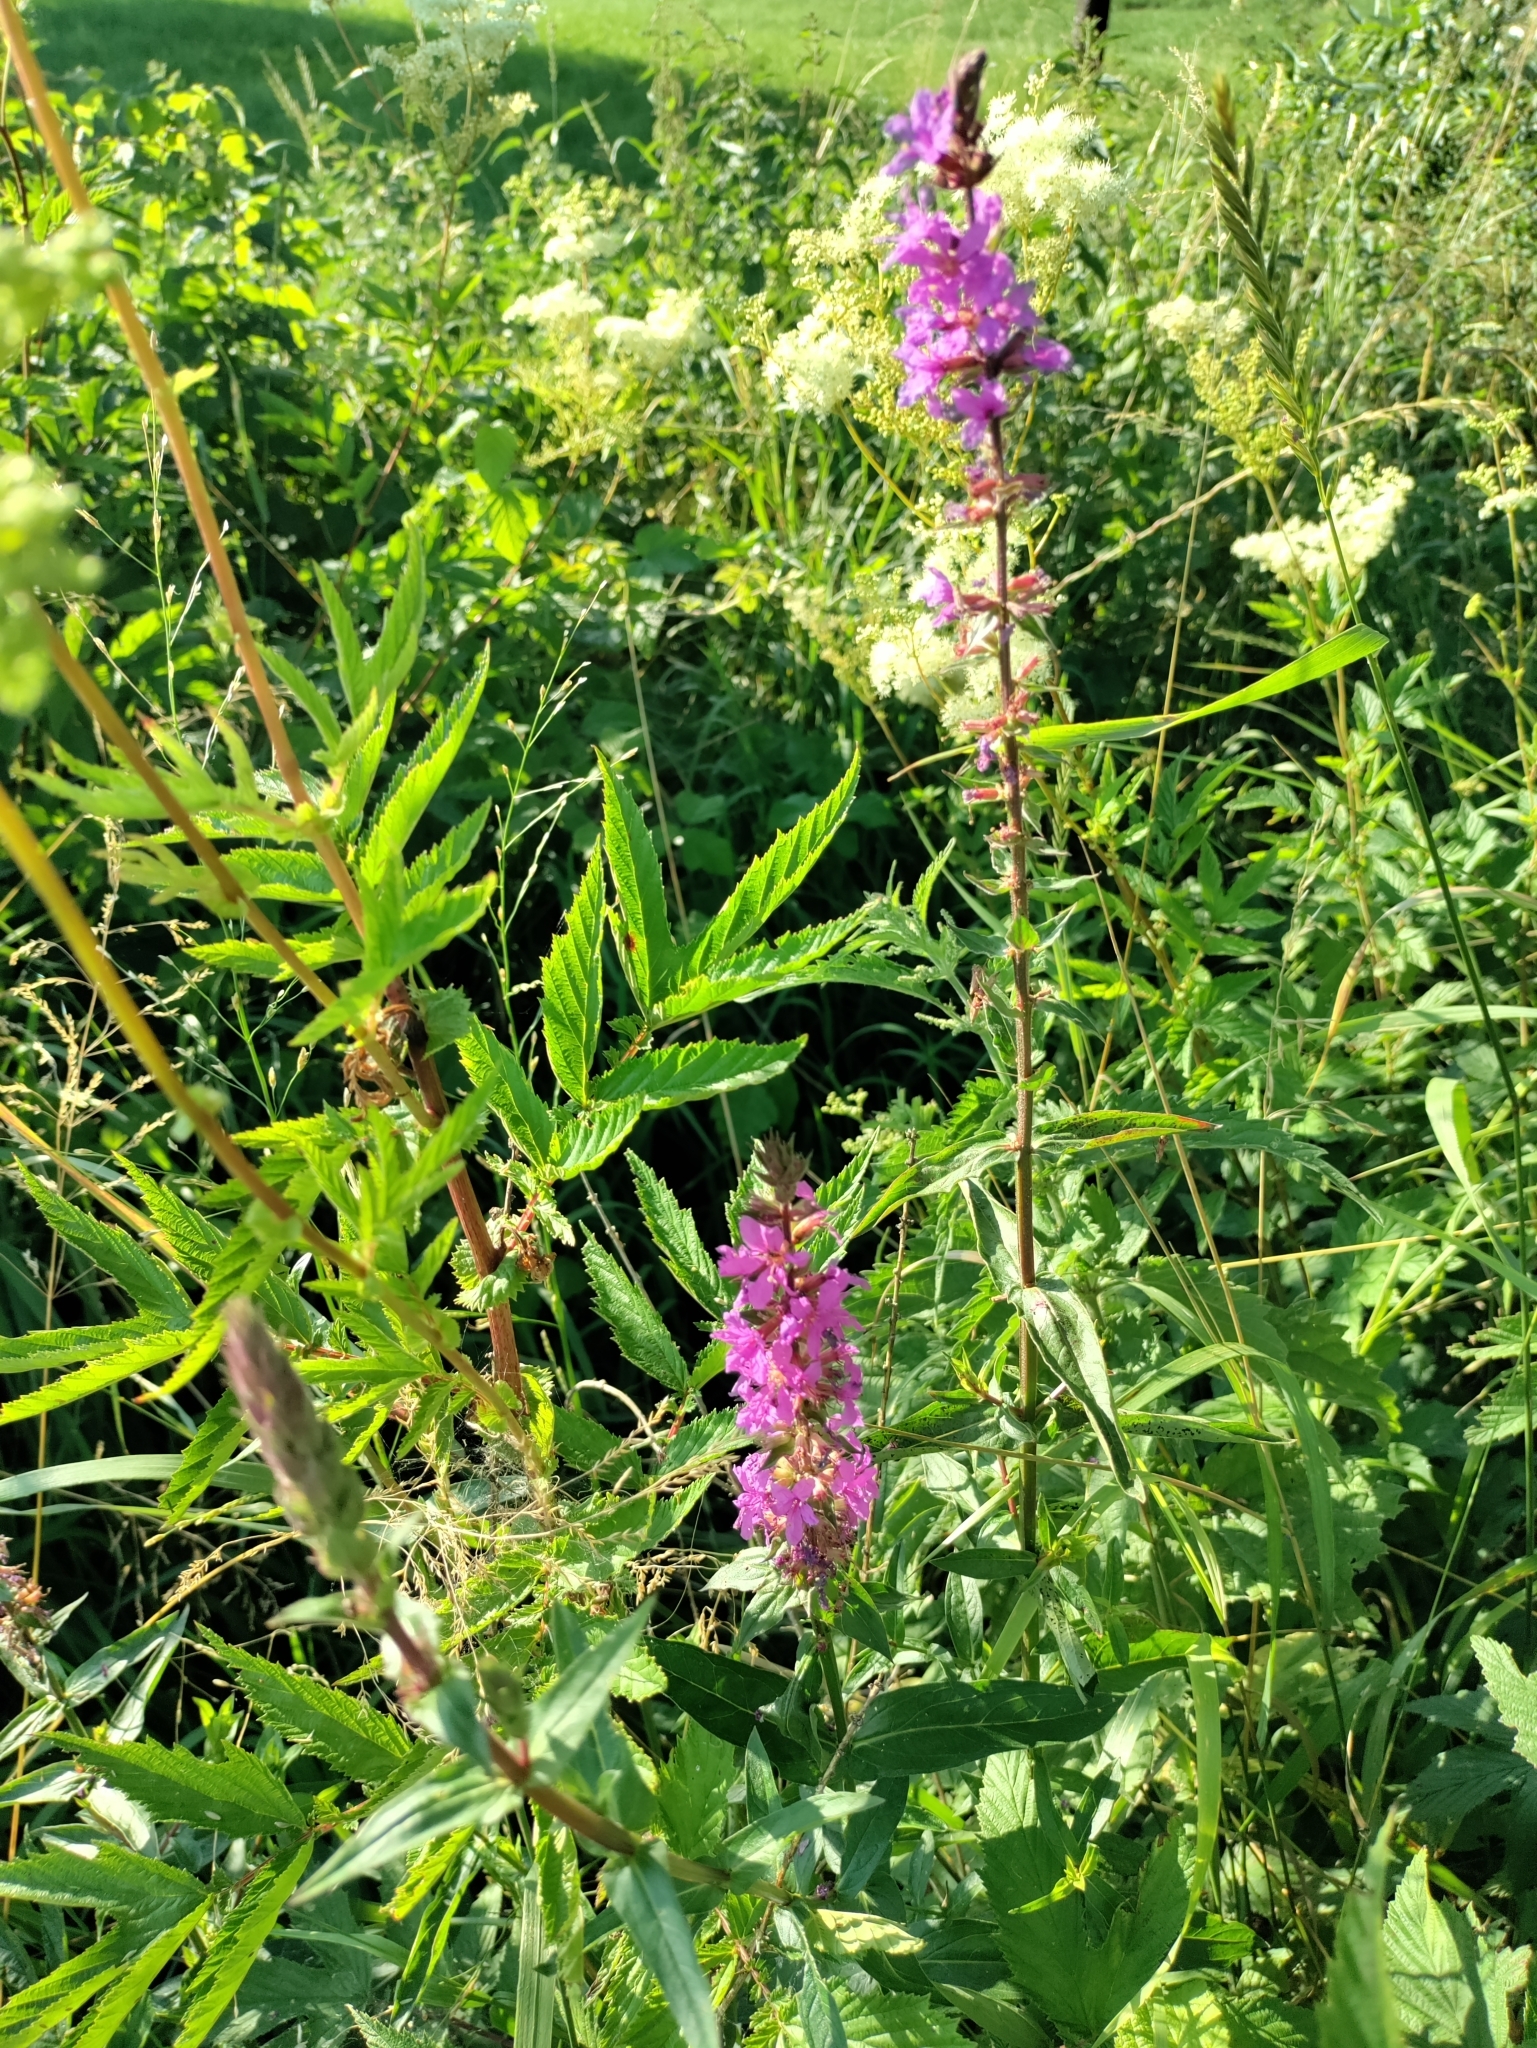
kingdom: Plantae
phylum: Tracheophyta
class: Magnoliopsida
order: Myrtales
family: Lythraceae
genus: Lythrum
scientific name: Lythrum salicaria
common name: Purple loosestrife
